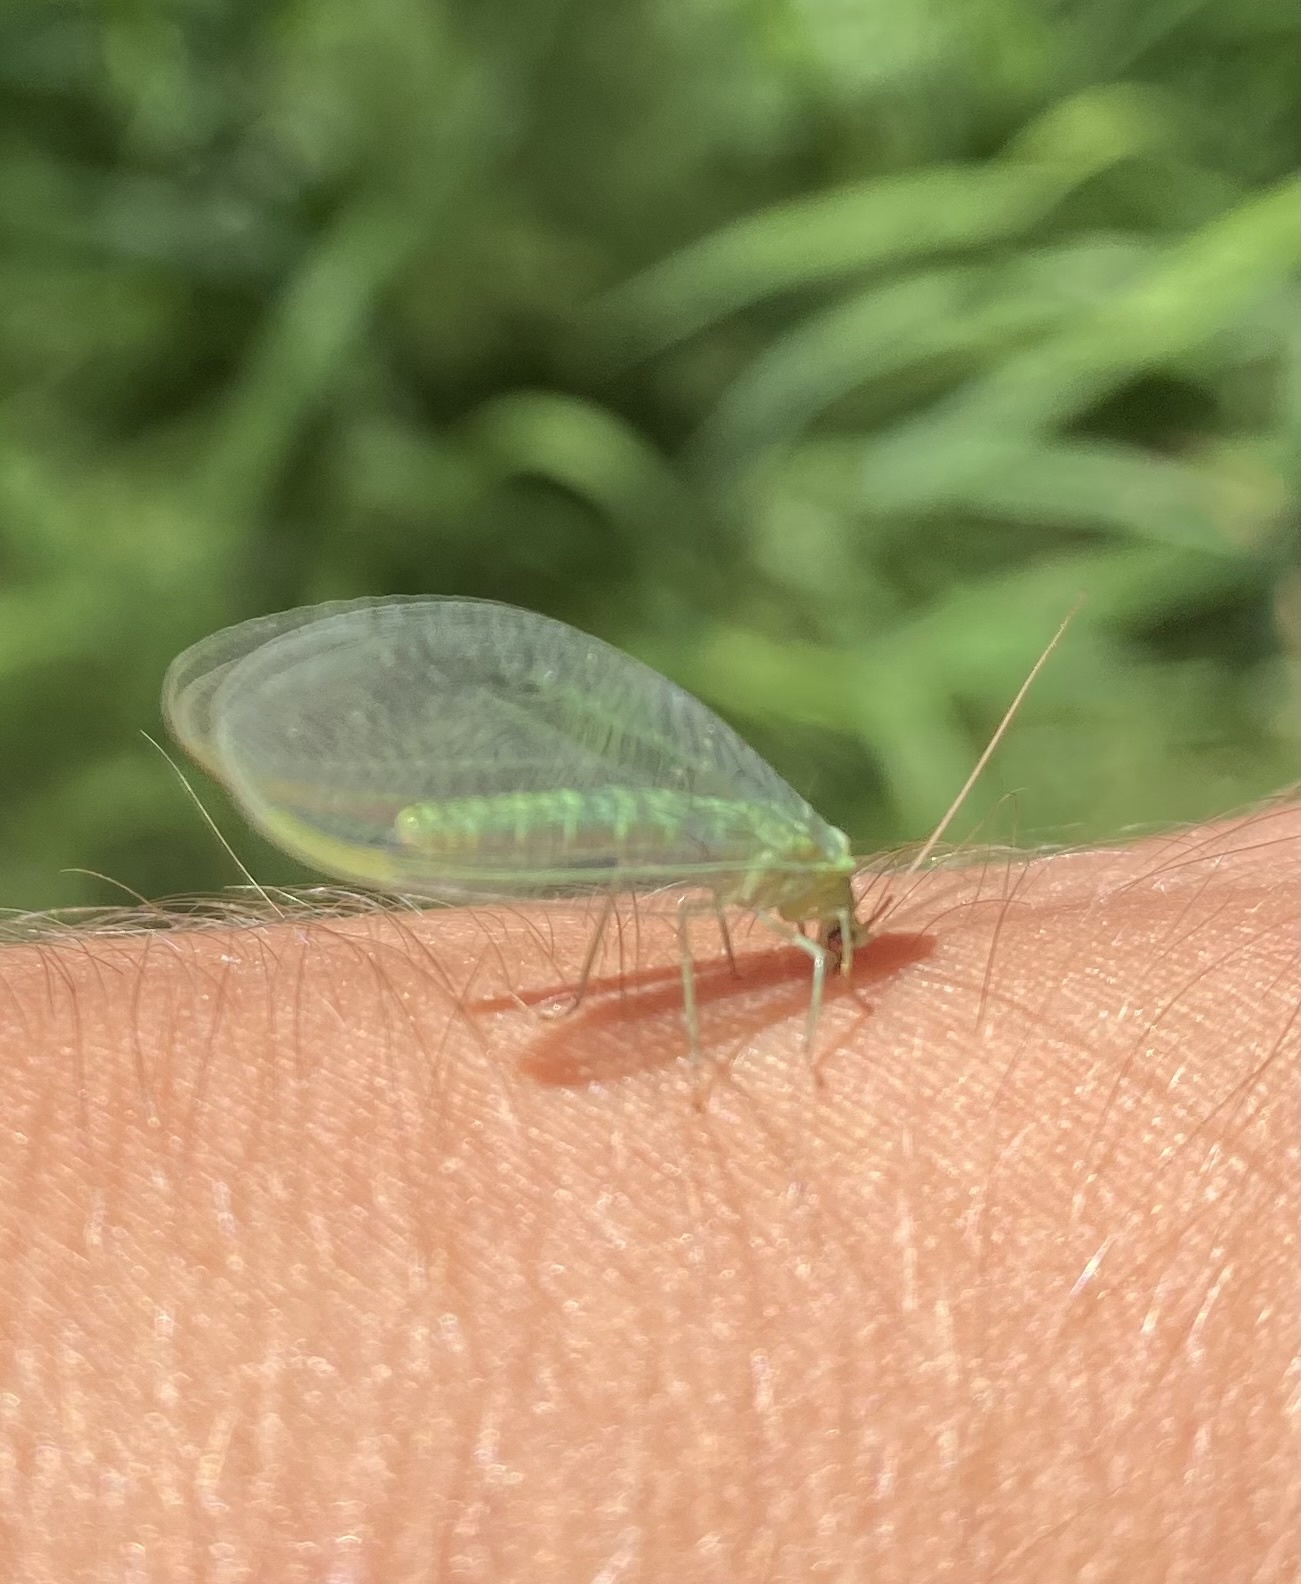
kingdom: Animalia
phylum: Arthropoda
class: Insecta
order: Neuroptera
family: Chrysopidae
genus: Chrysopa
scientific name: Chrysopa pallens
